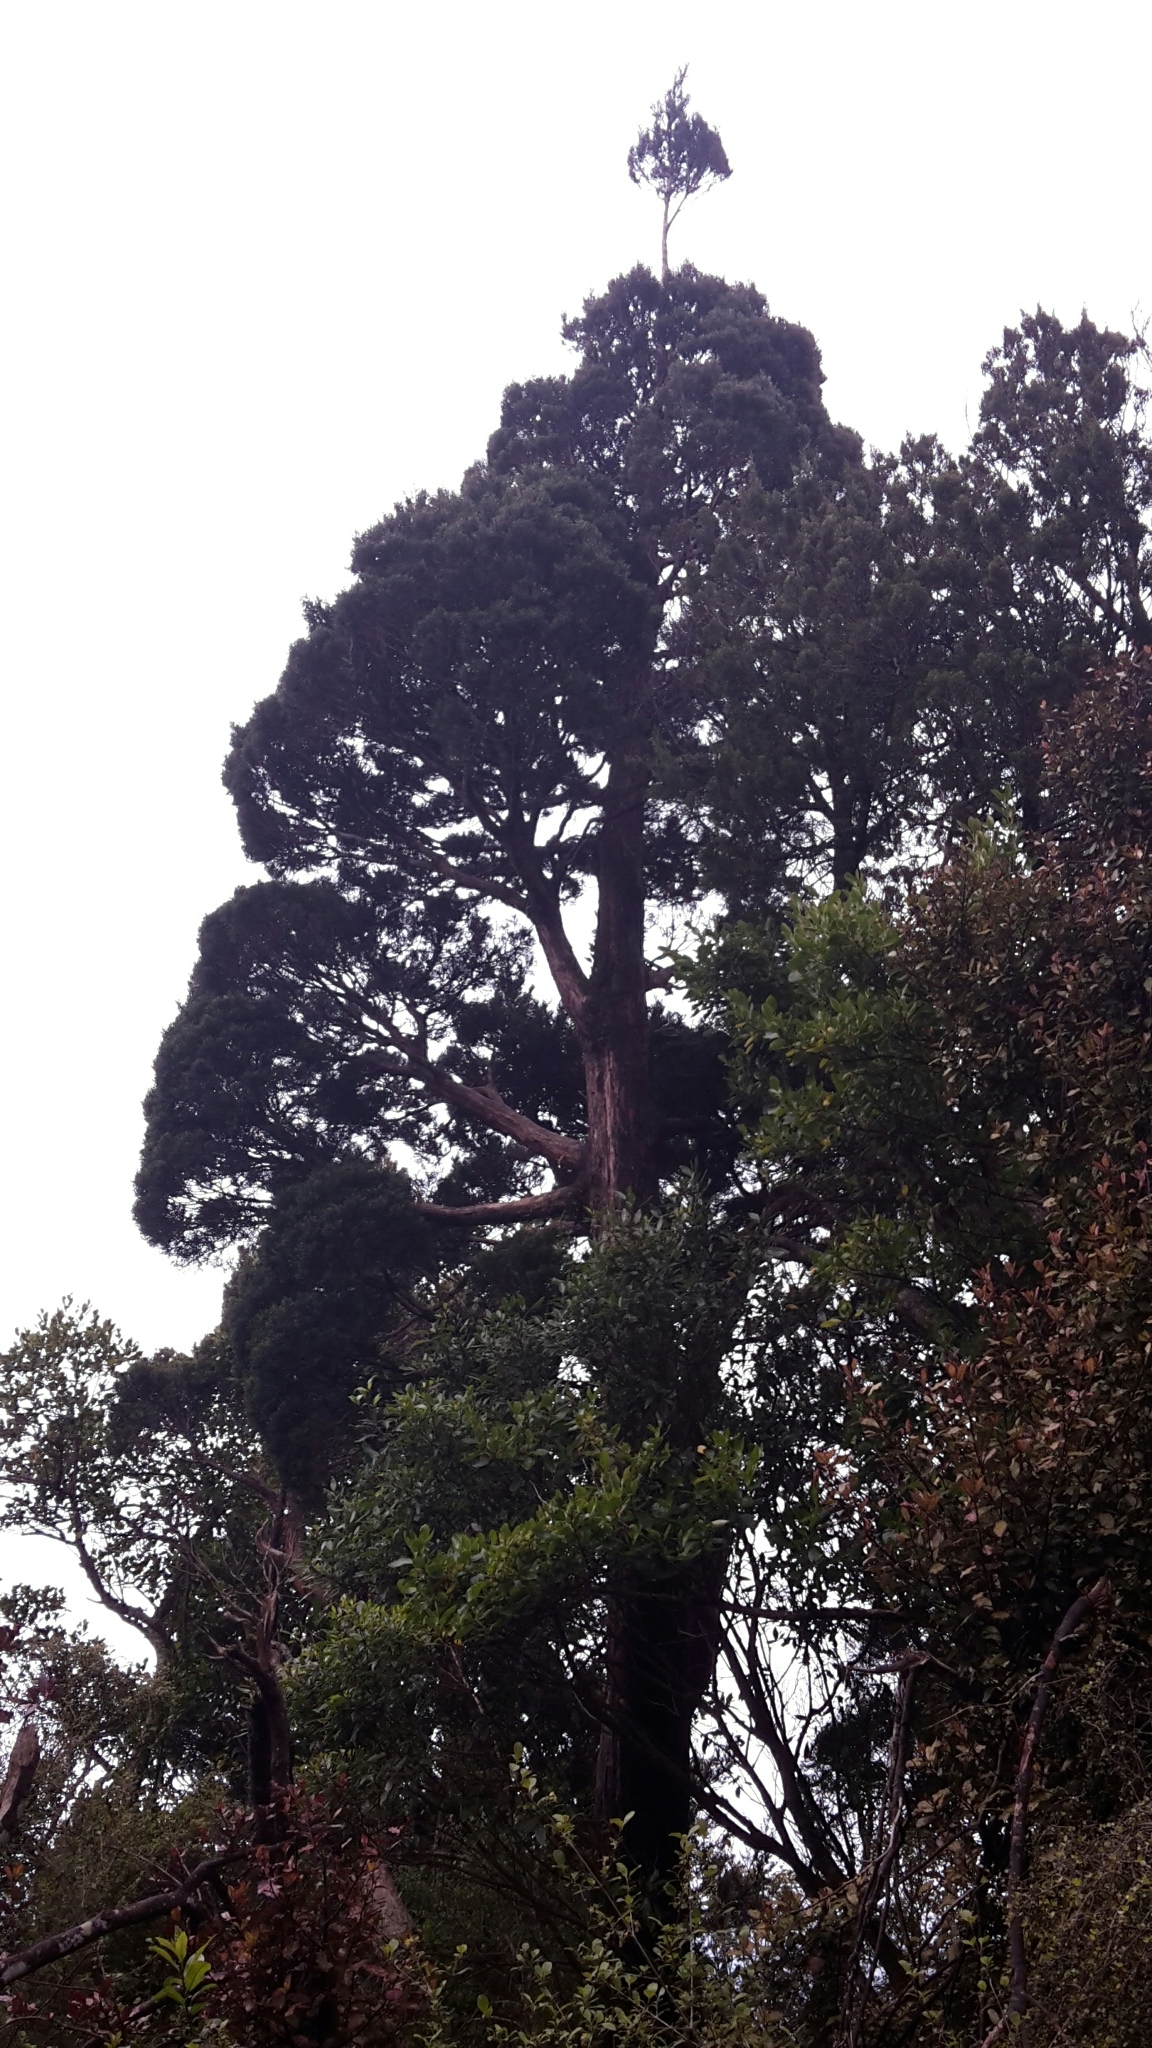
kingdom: Plantae
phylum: Tracheophyta
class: Pinopsida
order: Pinales
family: Cupressaceae
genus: Libocedrus
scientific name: Libocedrus bidwillii
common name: Cedar
